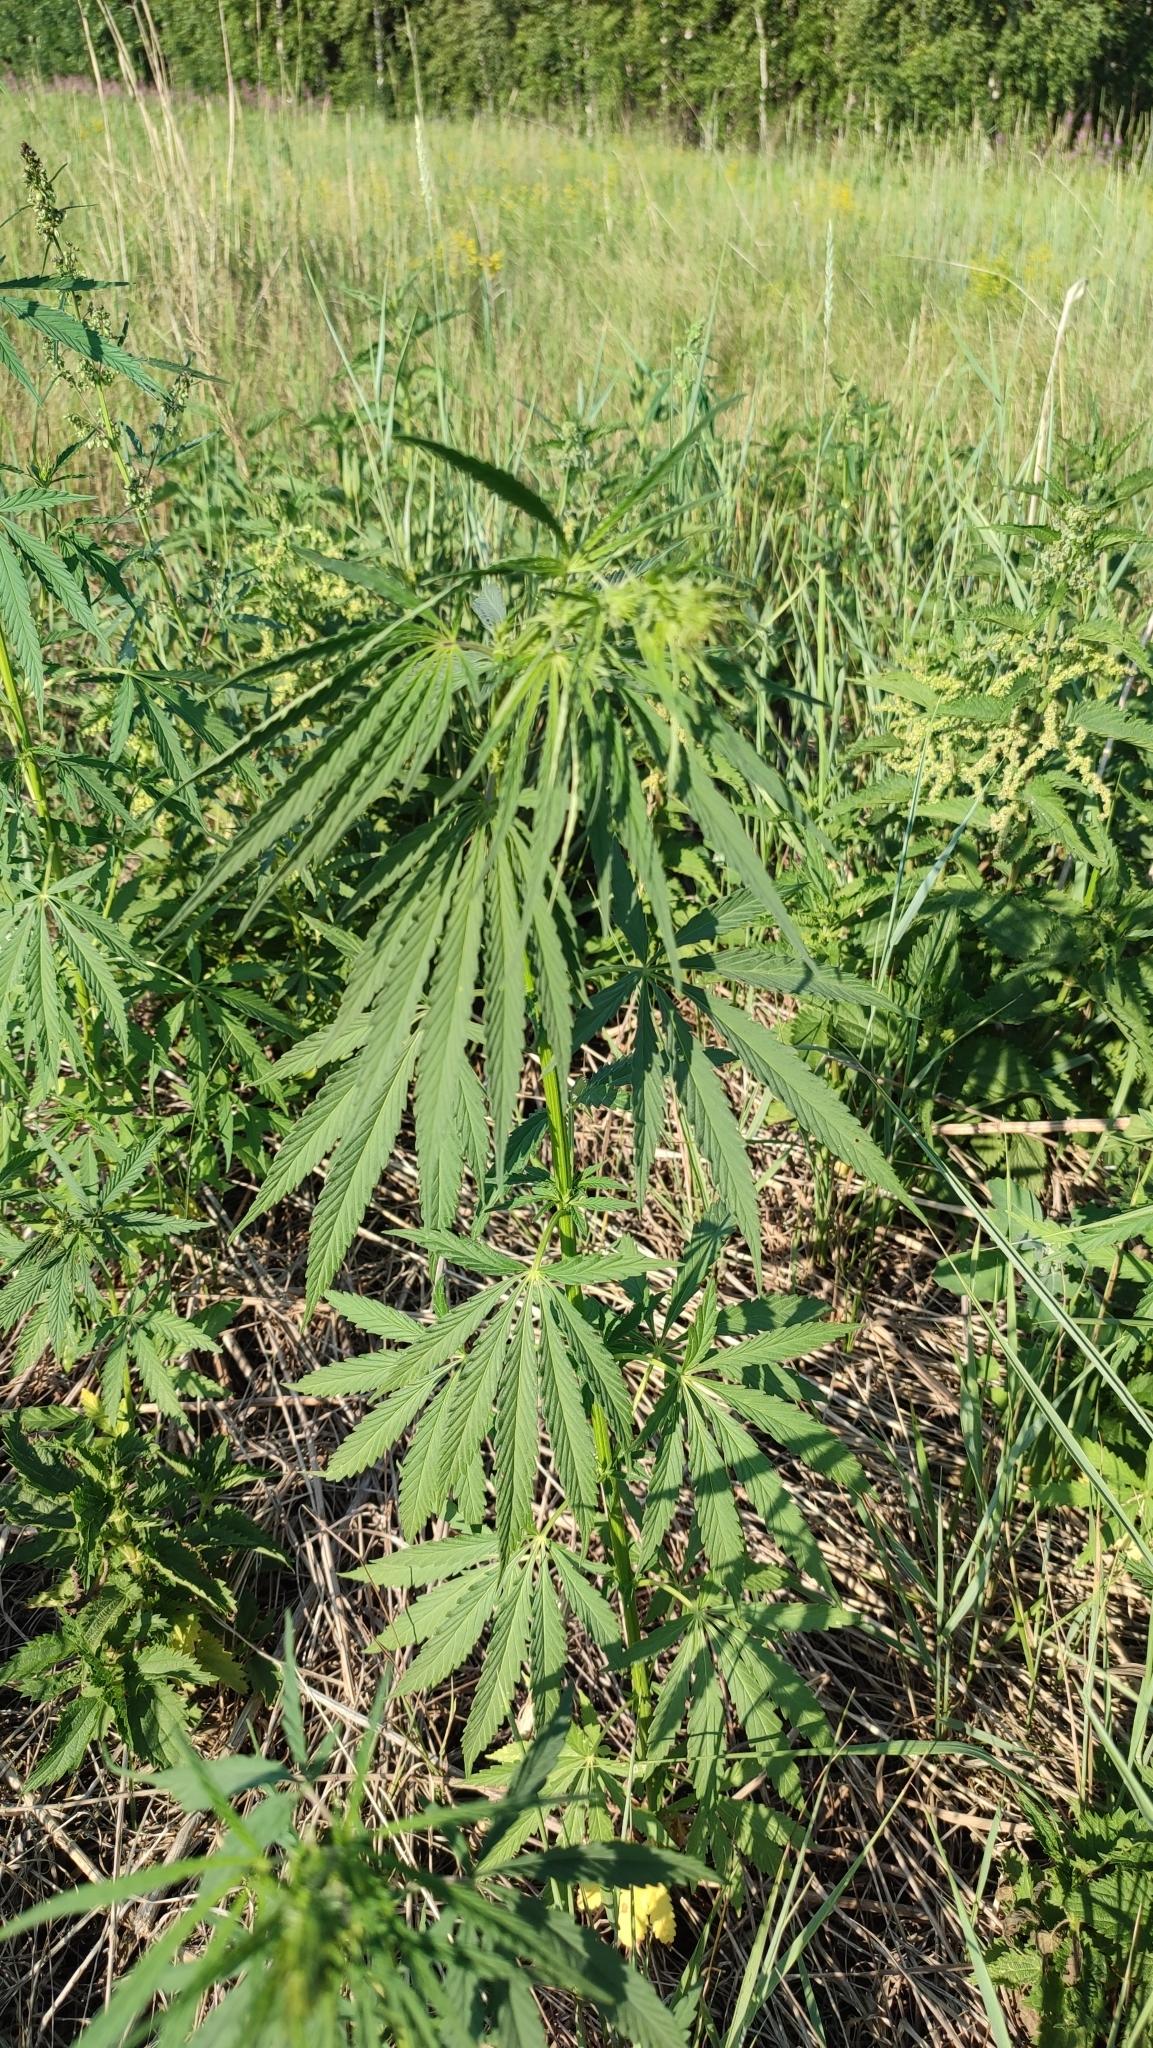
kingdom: Plantae
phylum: Tracheophyta
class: Magnoliopsida
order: Rosales
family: Cannabaceae
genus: Cannabis
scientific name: Cannabis sativa
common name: Hemp
